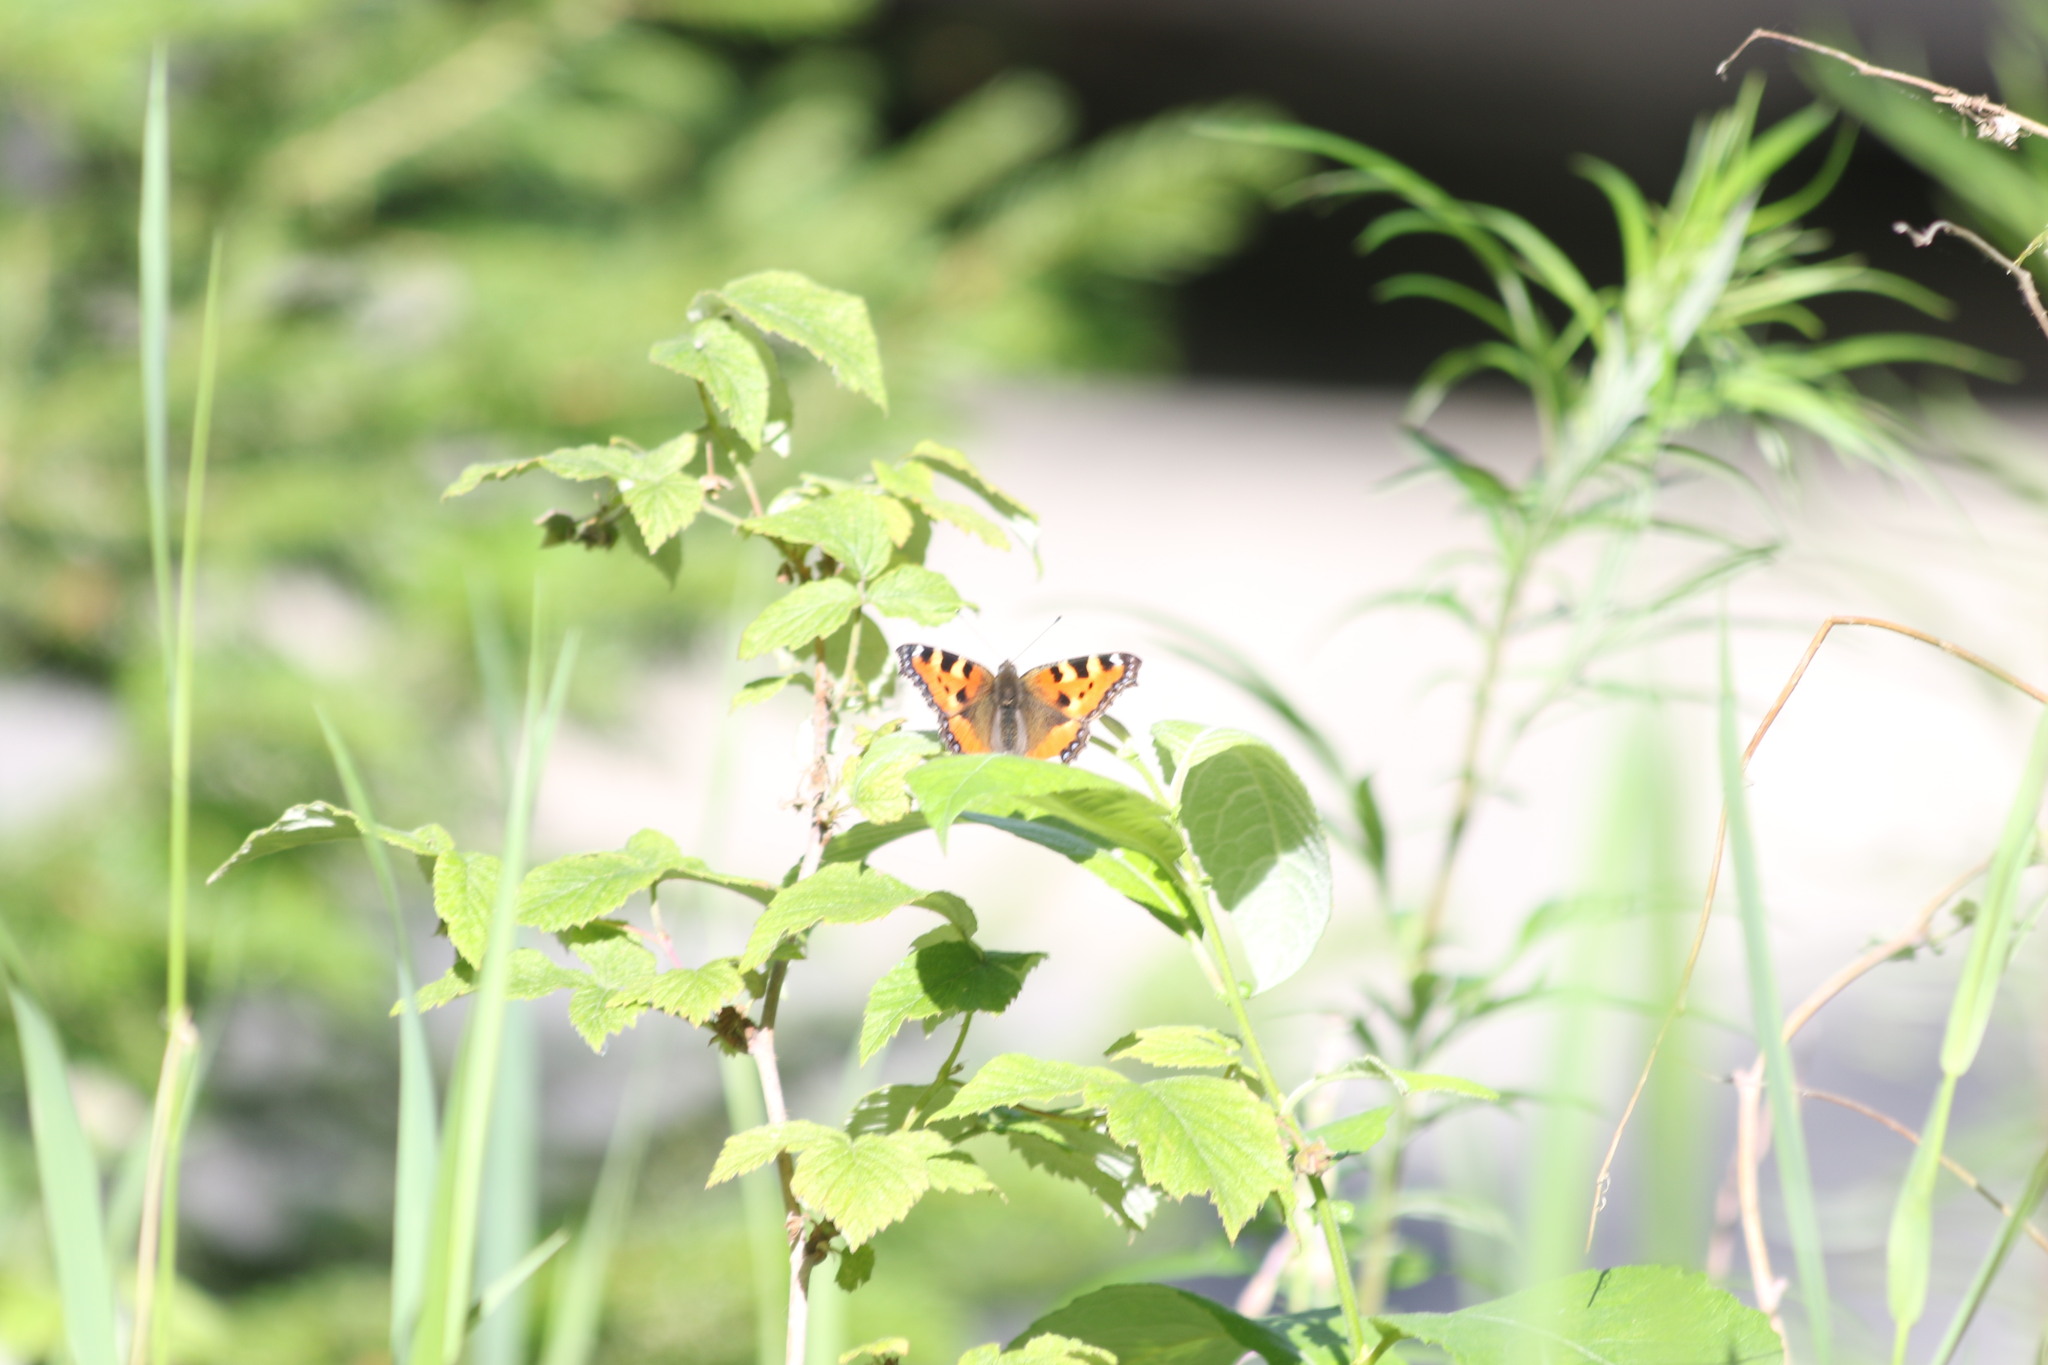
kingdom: Animalia
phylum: Arthropoda
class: Insecta
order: Lepidoptera
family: Nymphalidae
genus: Aglais
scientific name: Aglais urticae
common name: Small tortoiseshell
